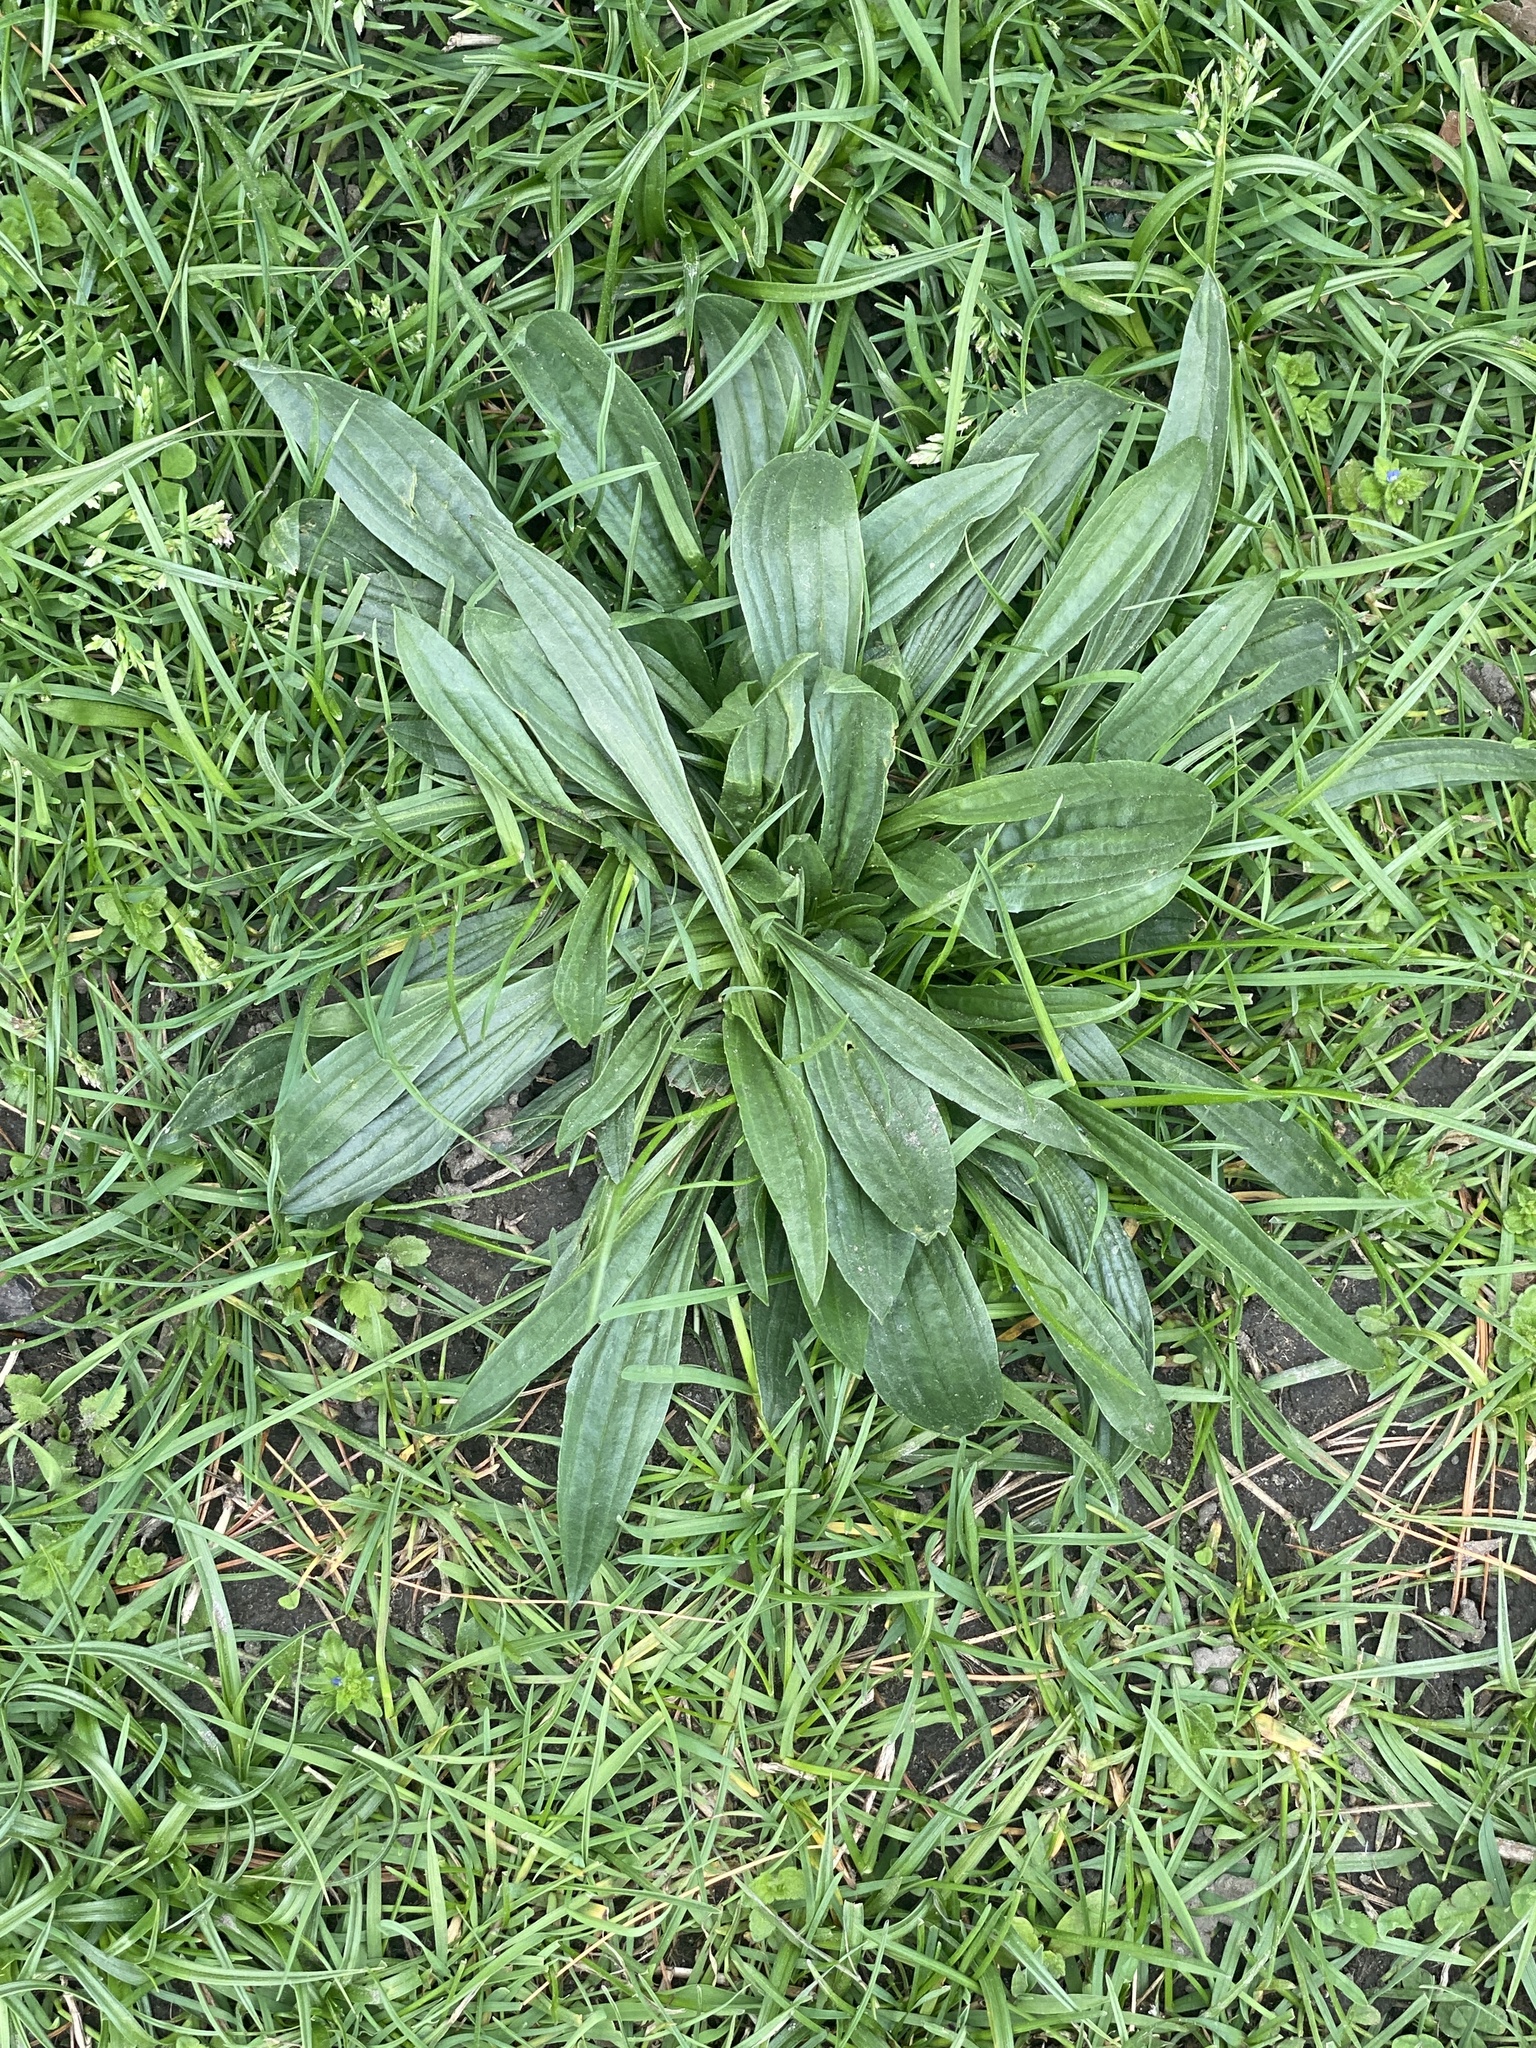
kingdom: Plantae
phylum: Tracheophyta
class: Magnoliopsida
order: Lamiales
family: Plantaginaceae
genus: Plantago
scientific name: Plantago lanceolata
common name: Ribwort plantain
